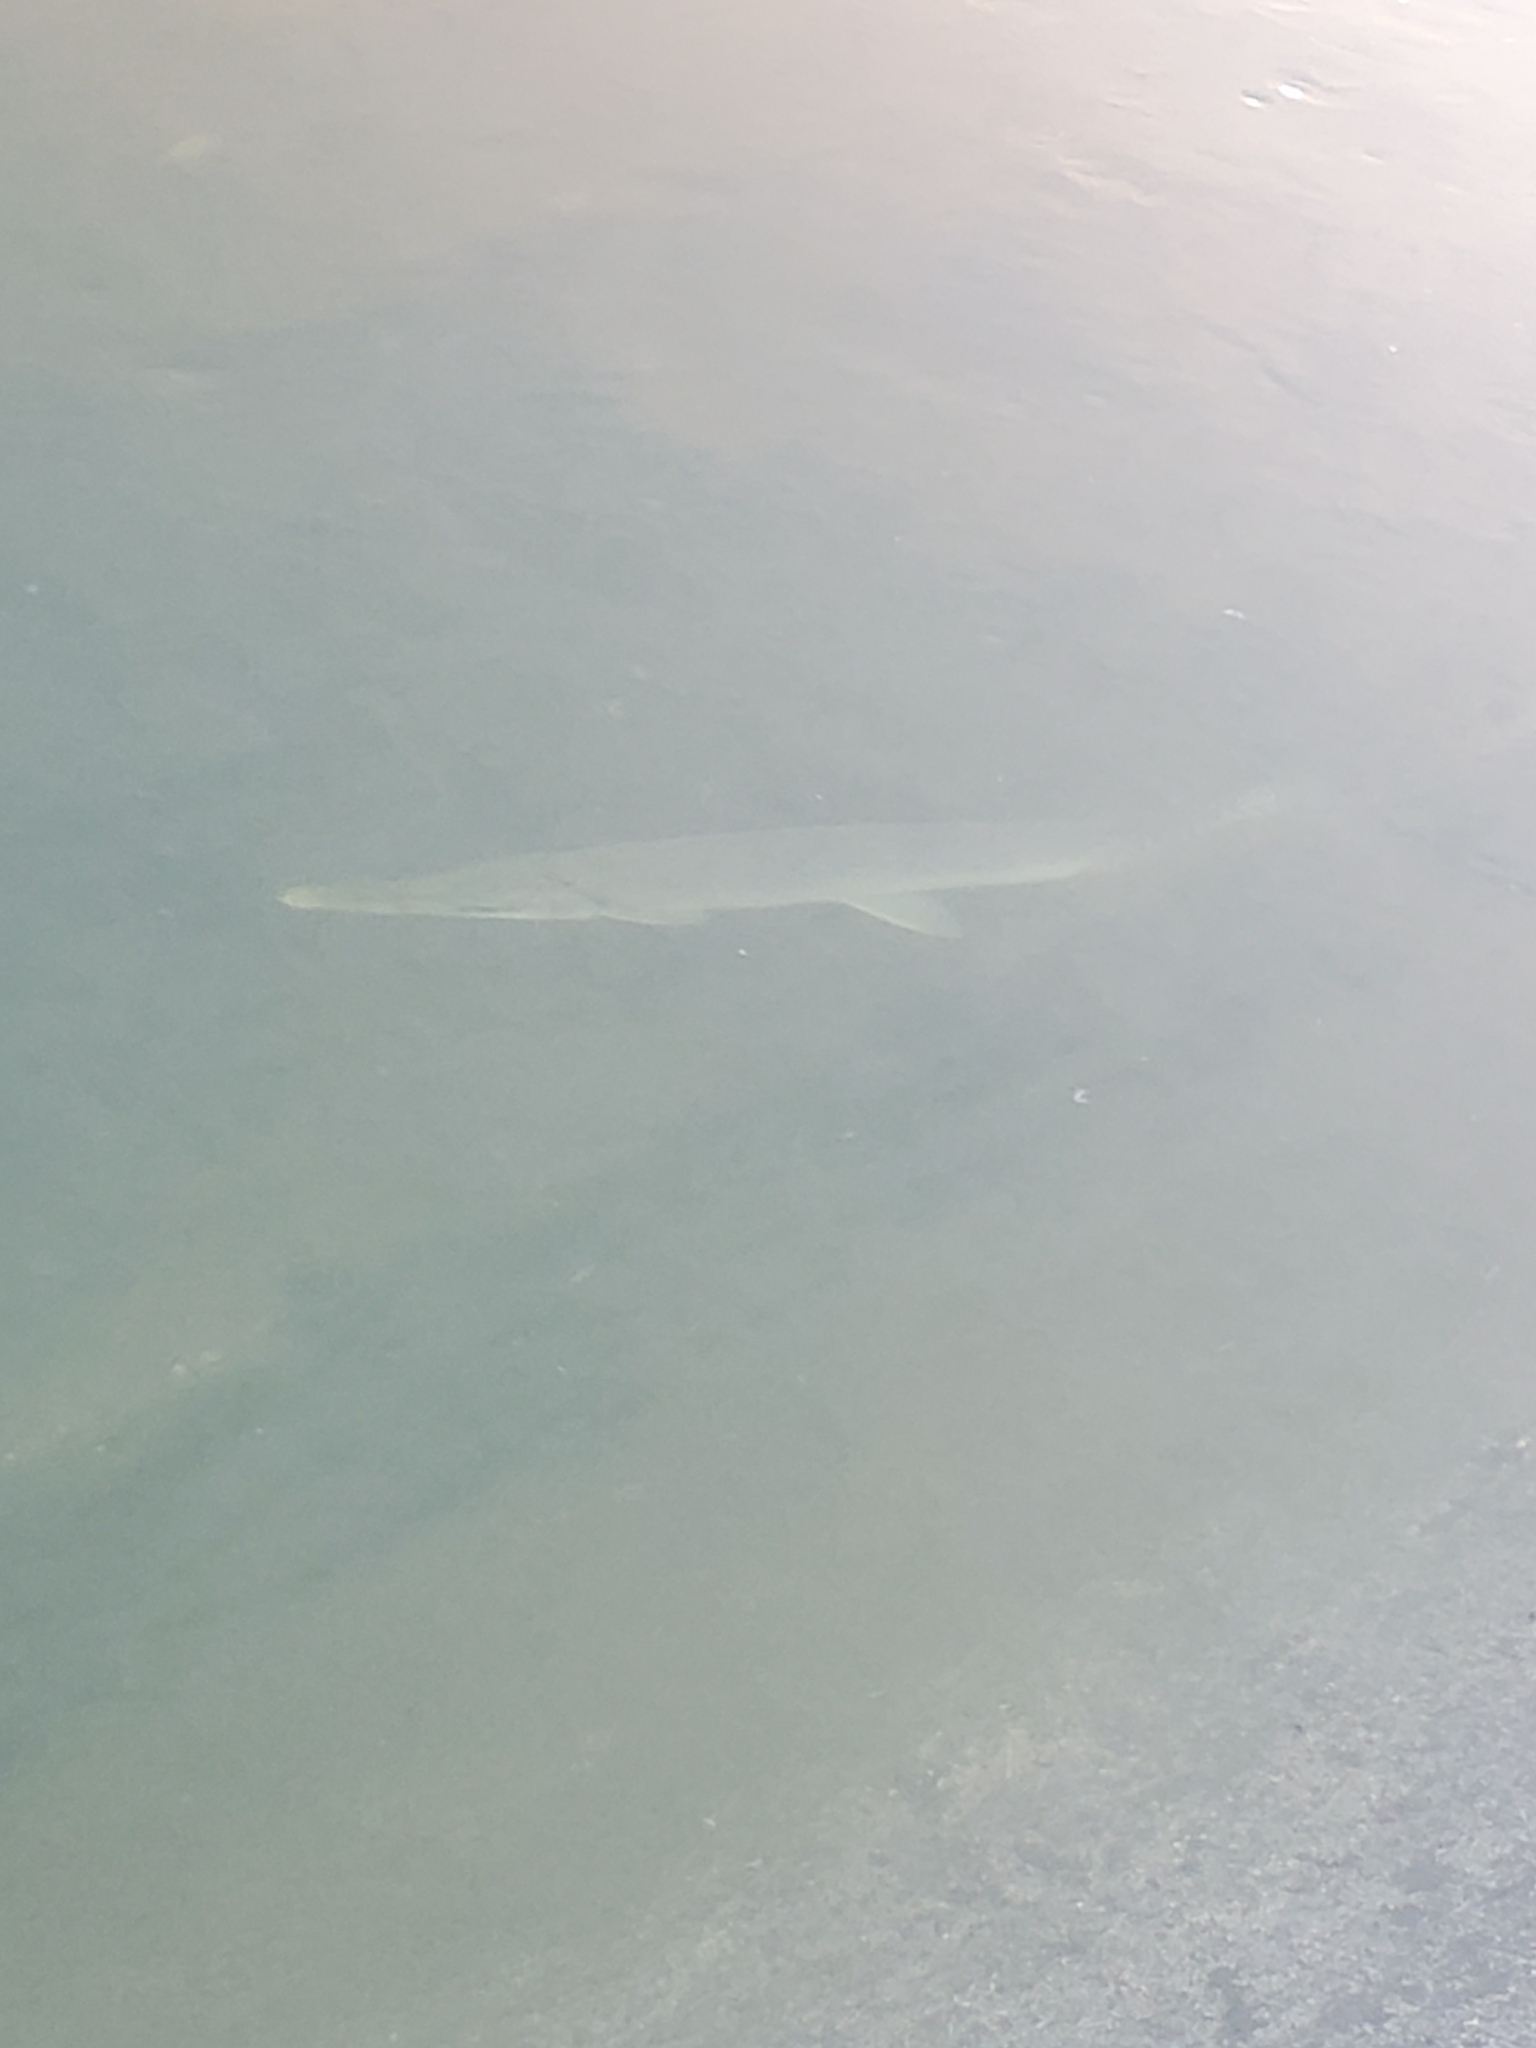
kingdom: Animalia
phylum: Chordata
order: Lepisosteiformes
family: Lepisosteidae
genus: Lepisosteus
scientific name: Lepisosteus platostomus
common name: Shortnose gar
